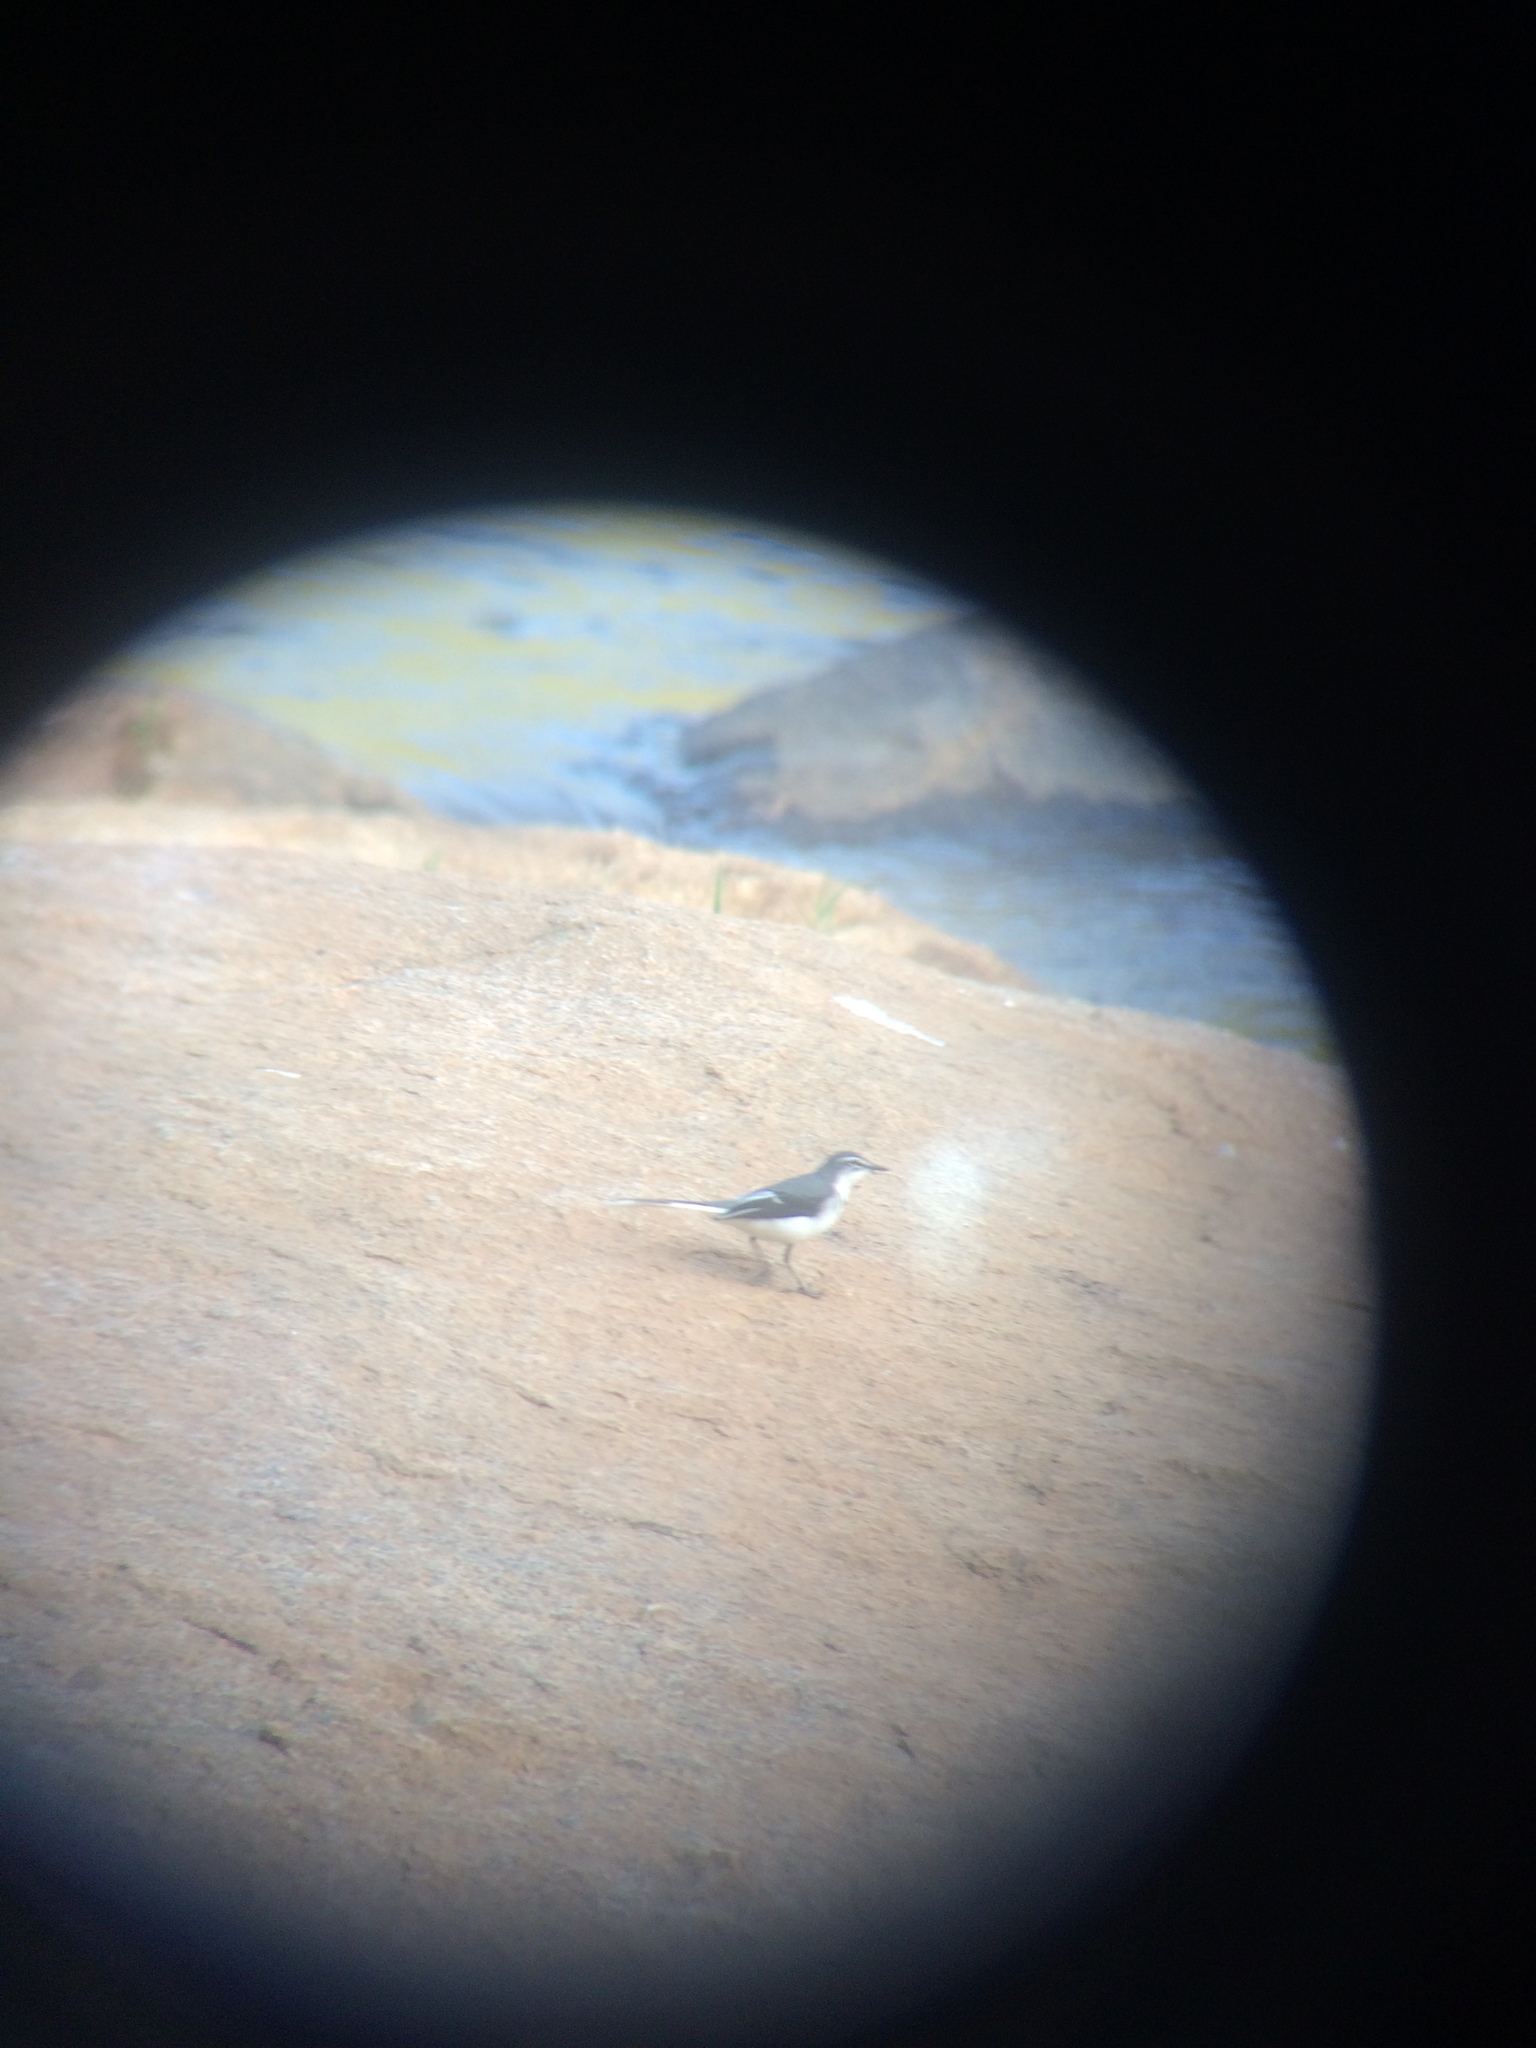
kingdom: Animalia
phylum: Chordata
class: Aves
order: Passeriformes
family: Motacillidae
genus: Motacilla
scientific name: Motacilla clara
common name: Mountain wagtail
